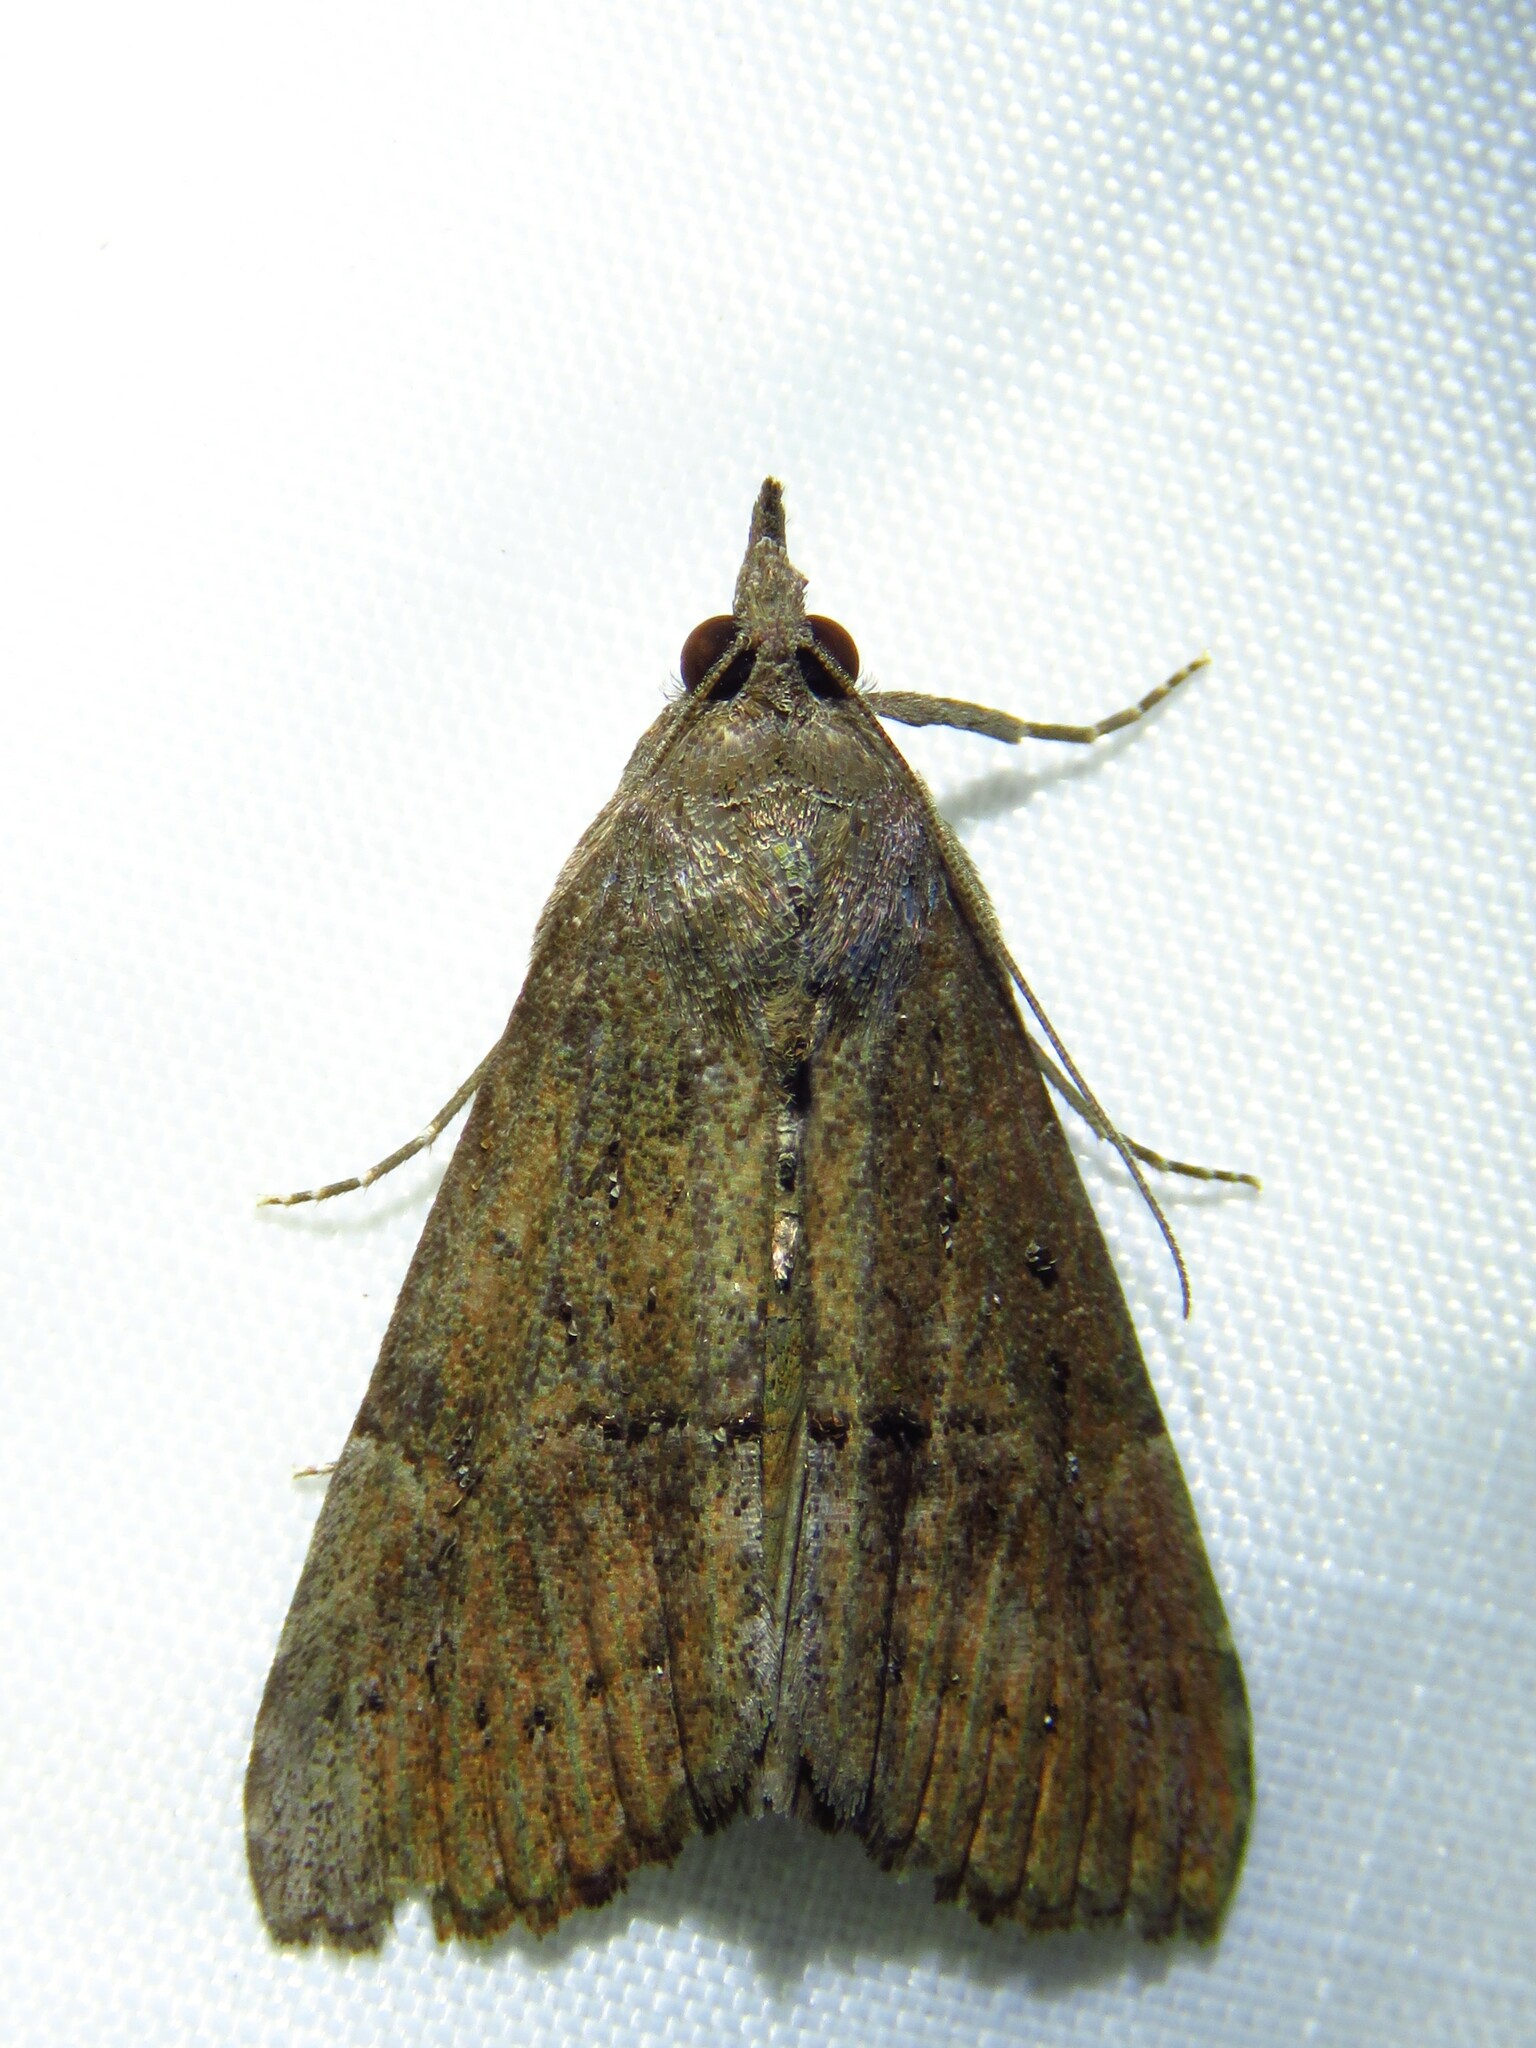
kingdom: Animalia
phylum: Arthropoda
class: Insecta
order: Lepidoptera
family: Erebidae
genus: Hypena
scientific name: Hypena scabra
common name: Green cloverworm
